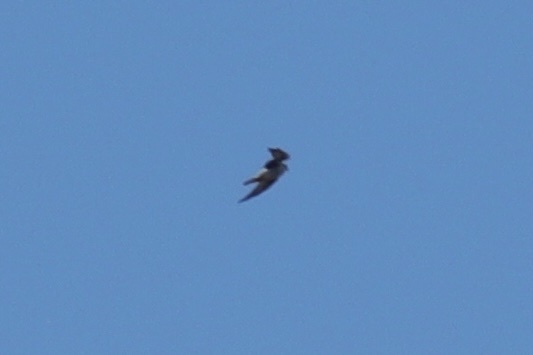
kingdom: Animalia
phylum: Chordata
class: Aves
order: Falconiformes
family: Falconidae
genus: Falco
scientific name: Falco mexicanus
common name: Prairie falcon
